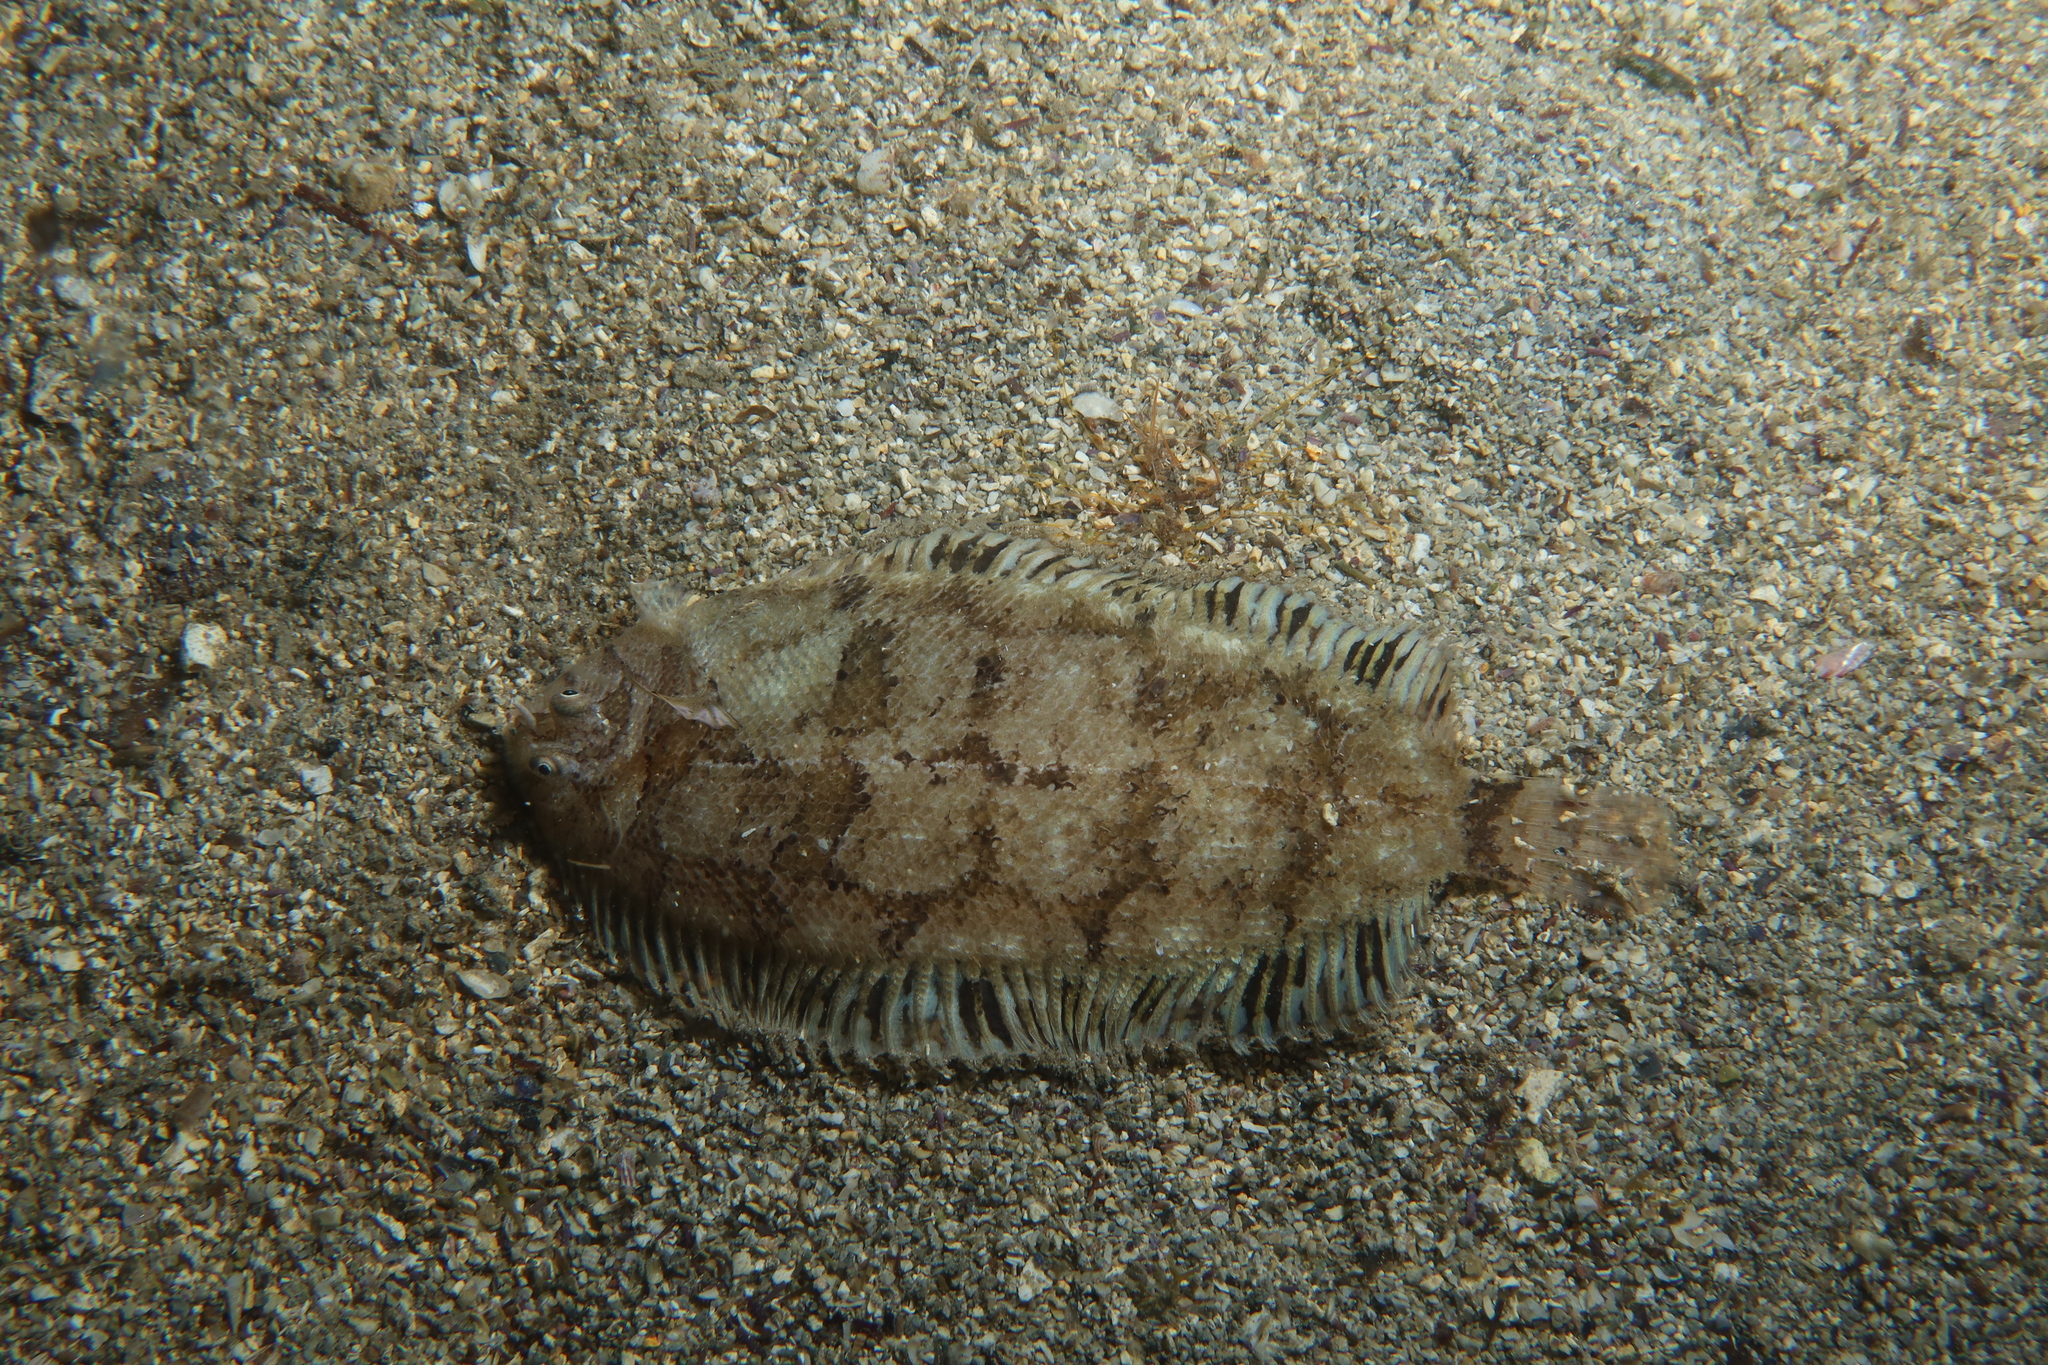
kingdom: Animalia
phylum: Chordata
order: Pleuronectiformes
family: Soleidae
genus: Monochirus
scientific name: Monochirus hispidus
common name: Whiskered sole
